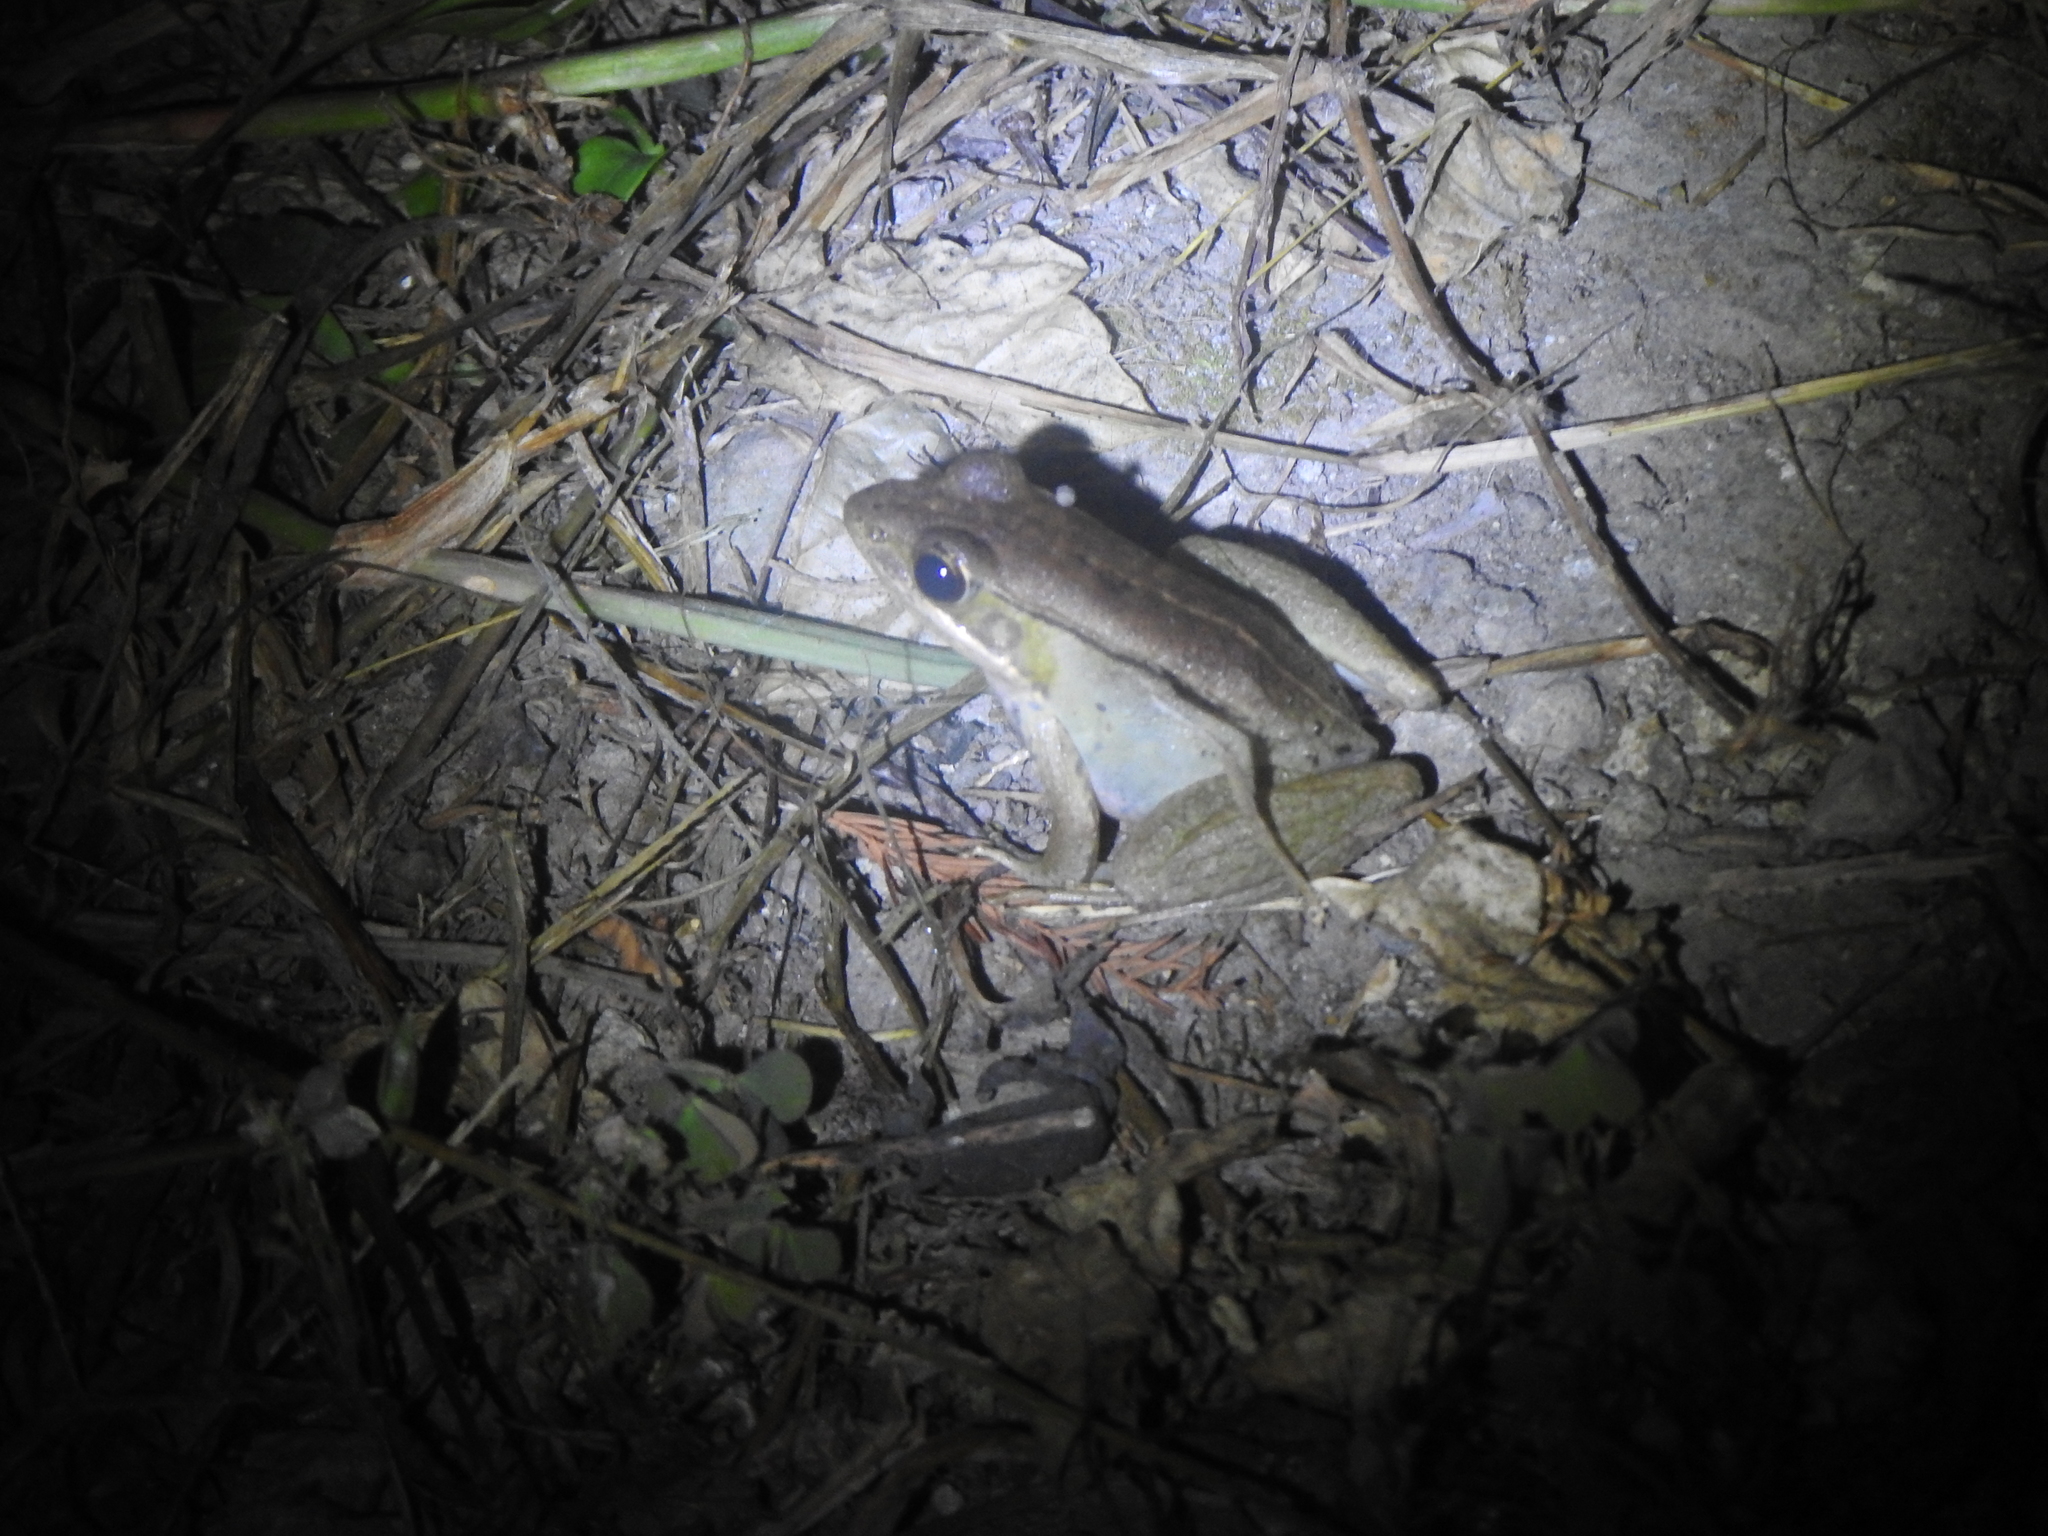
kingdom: Animalia
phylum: Chordata
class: Amphibia
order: Anura
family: Ranidae
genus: Nidirana
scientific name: Nidirana adenopleura
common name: Olive frog
